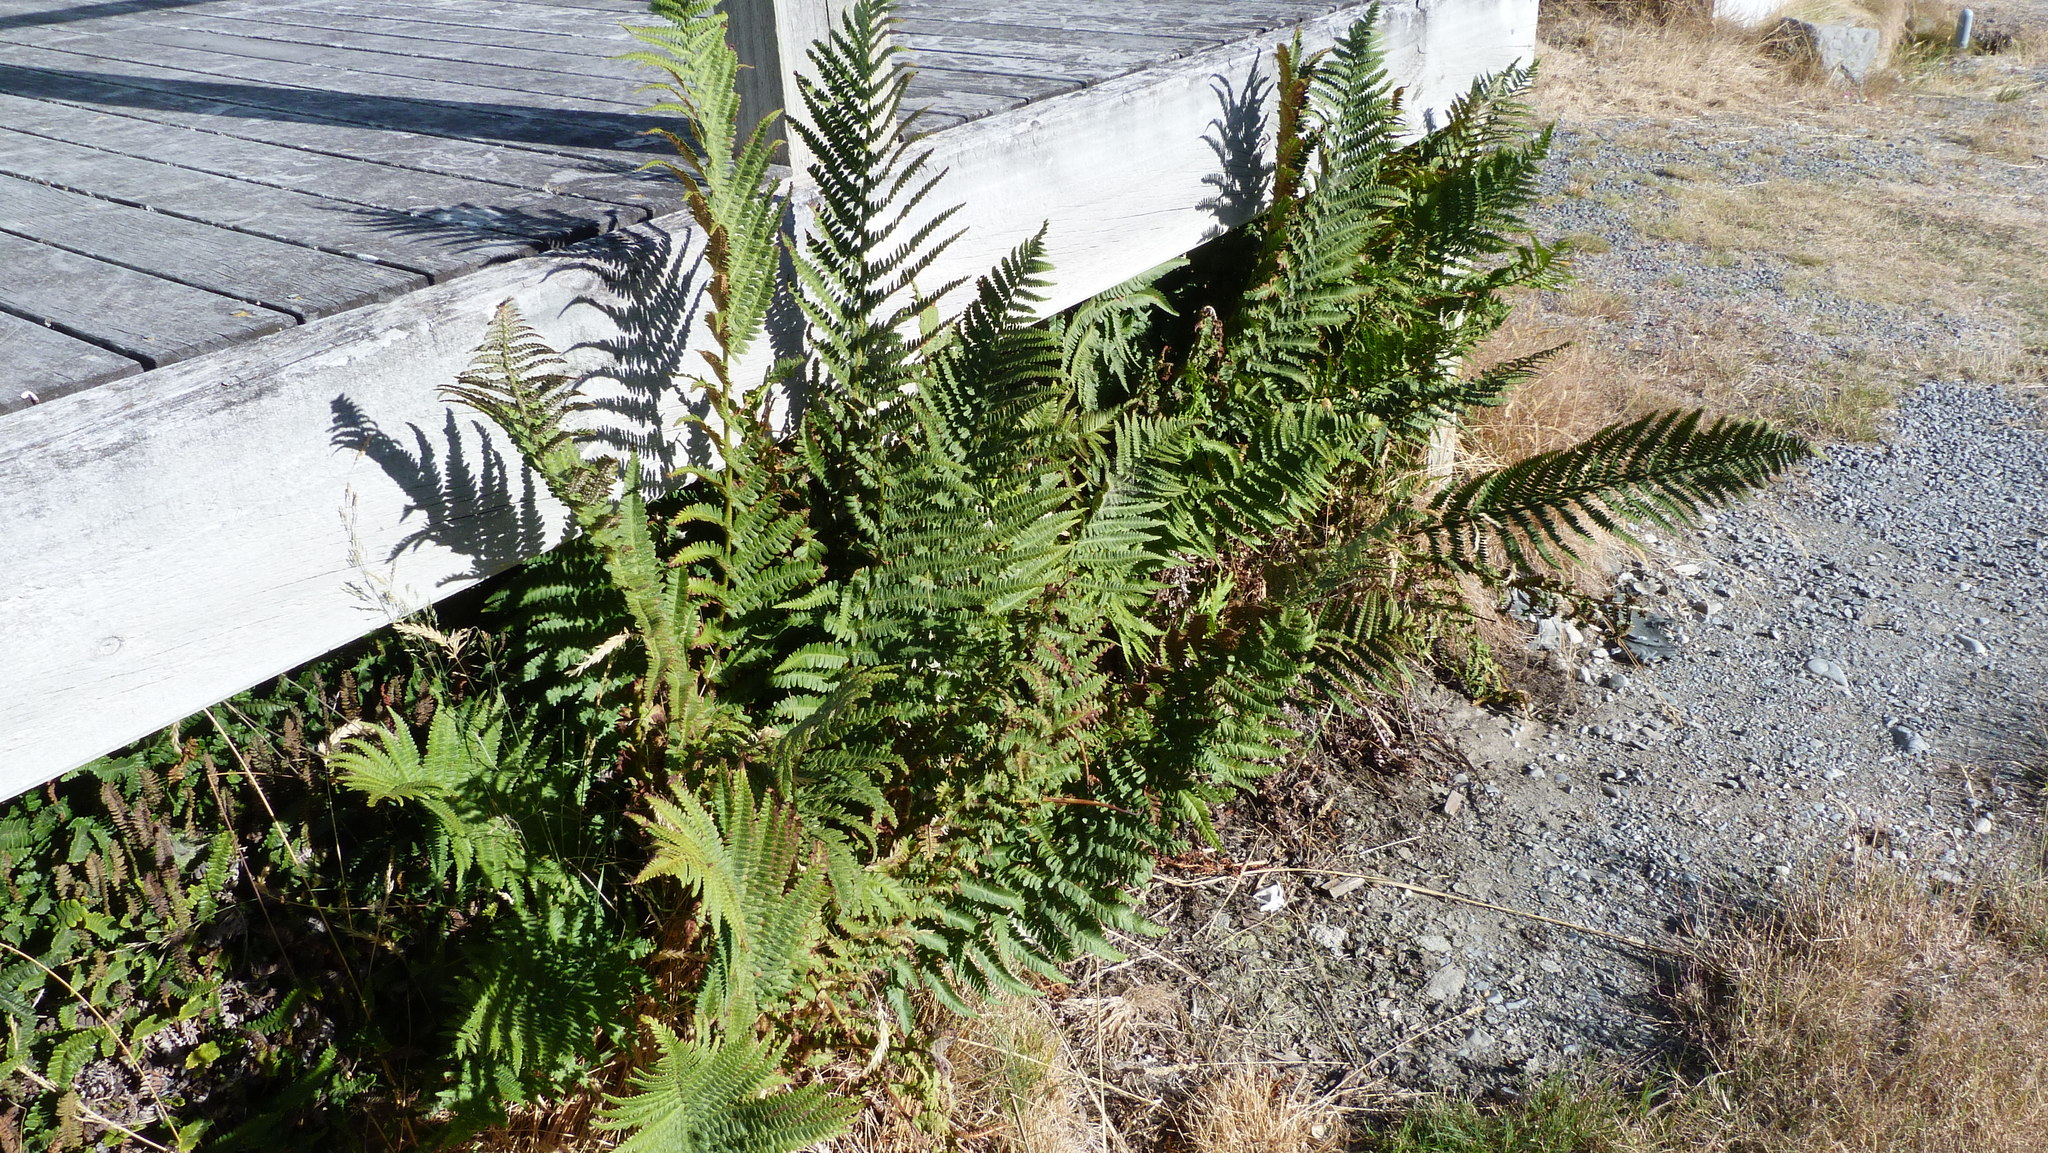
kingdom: Plantae
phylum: Tracheophyta
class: Polypodiopsida
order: Polypodiales
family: Dryopteridaceae
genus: Dryopteris
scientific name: Dryopteris filix-mas
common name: Male fern
